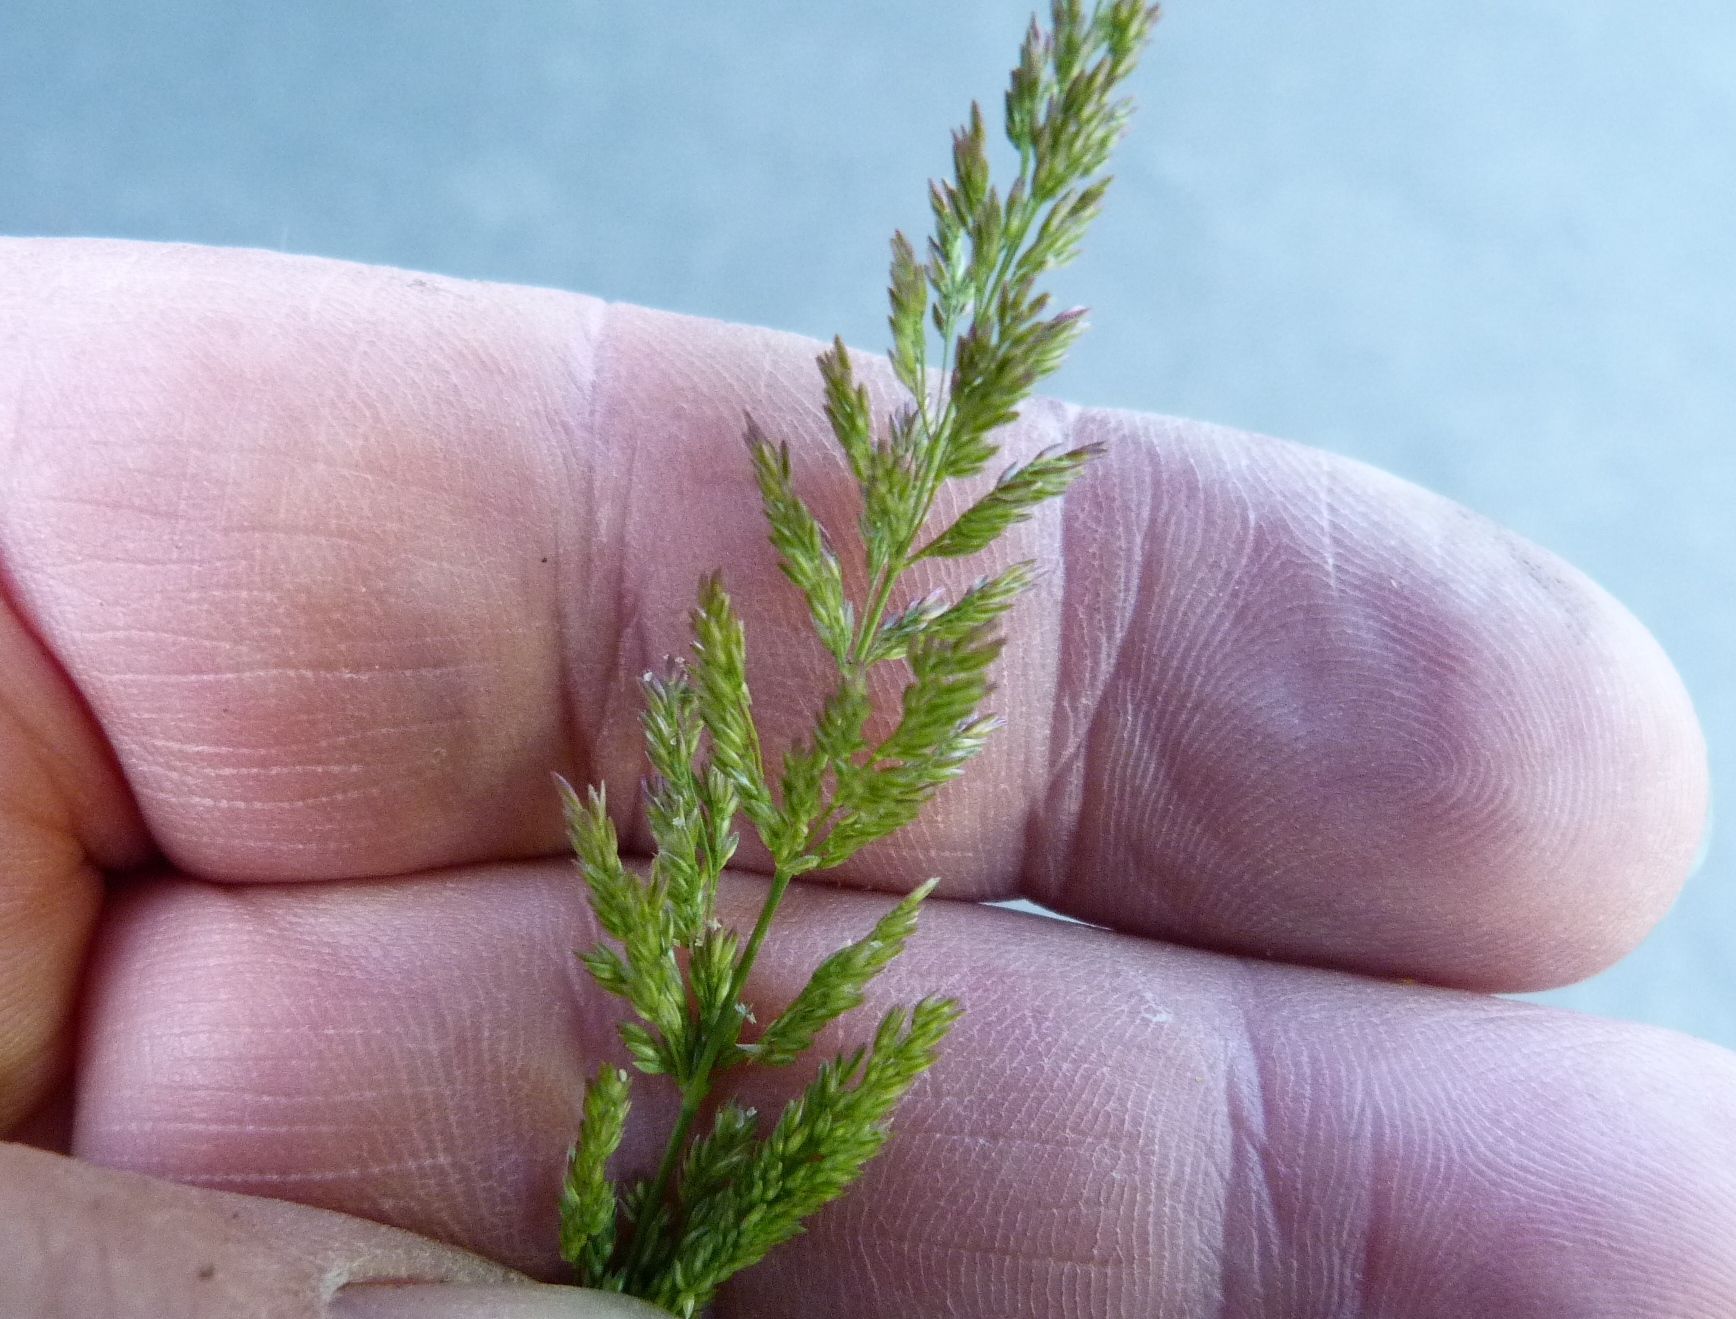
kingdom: Plantae
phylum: Tracheophyta
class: Liliopsida
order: Poales
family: Poaceae
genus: Polypogon
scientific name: Polypogon viridis
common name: Water bent
